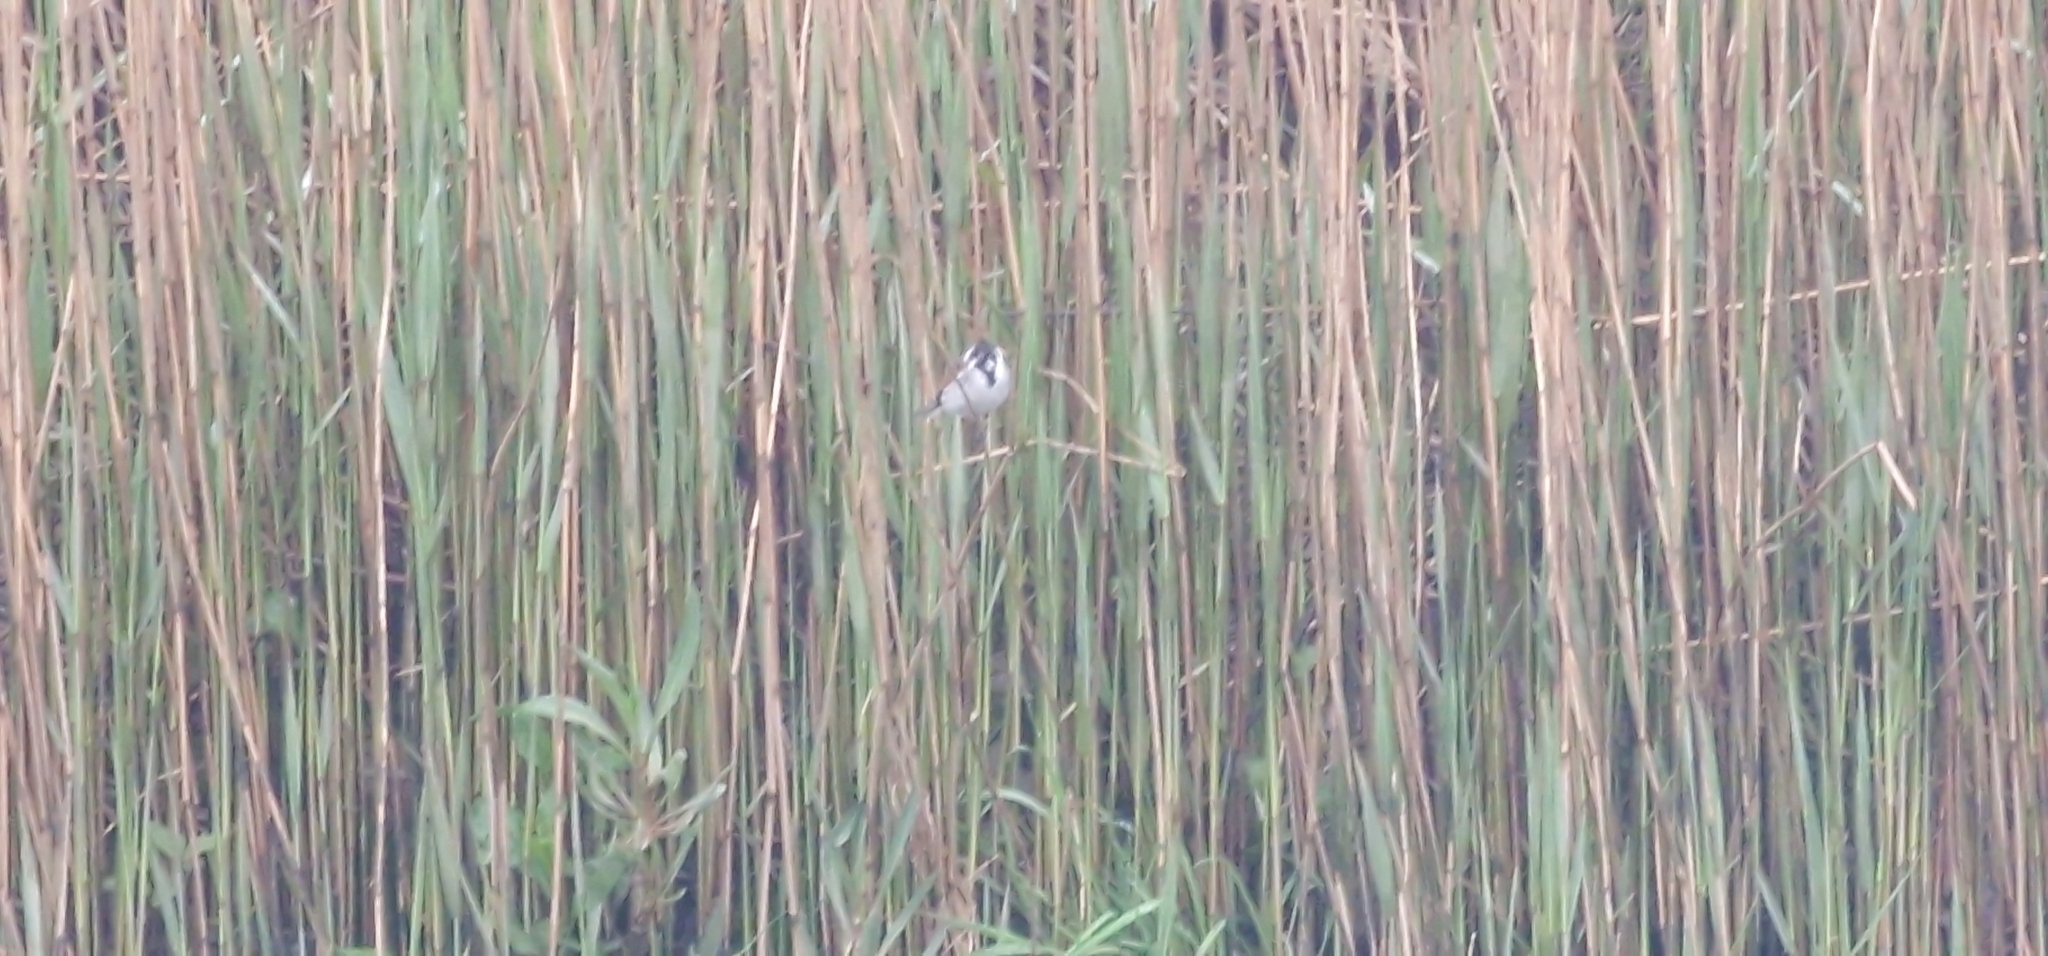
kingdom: Animalia
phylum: Chordata
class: Aves
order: Passeriformes
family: Emberizidae
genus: Emberiza
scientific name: Emberiza schoeniclus
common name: Reed bunting
